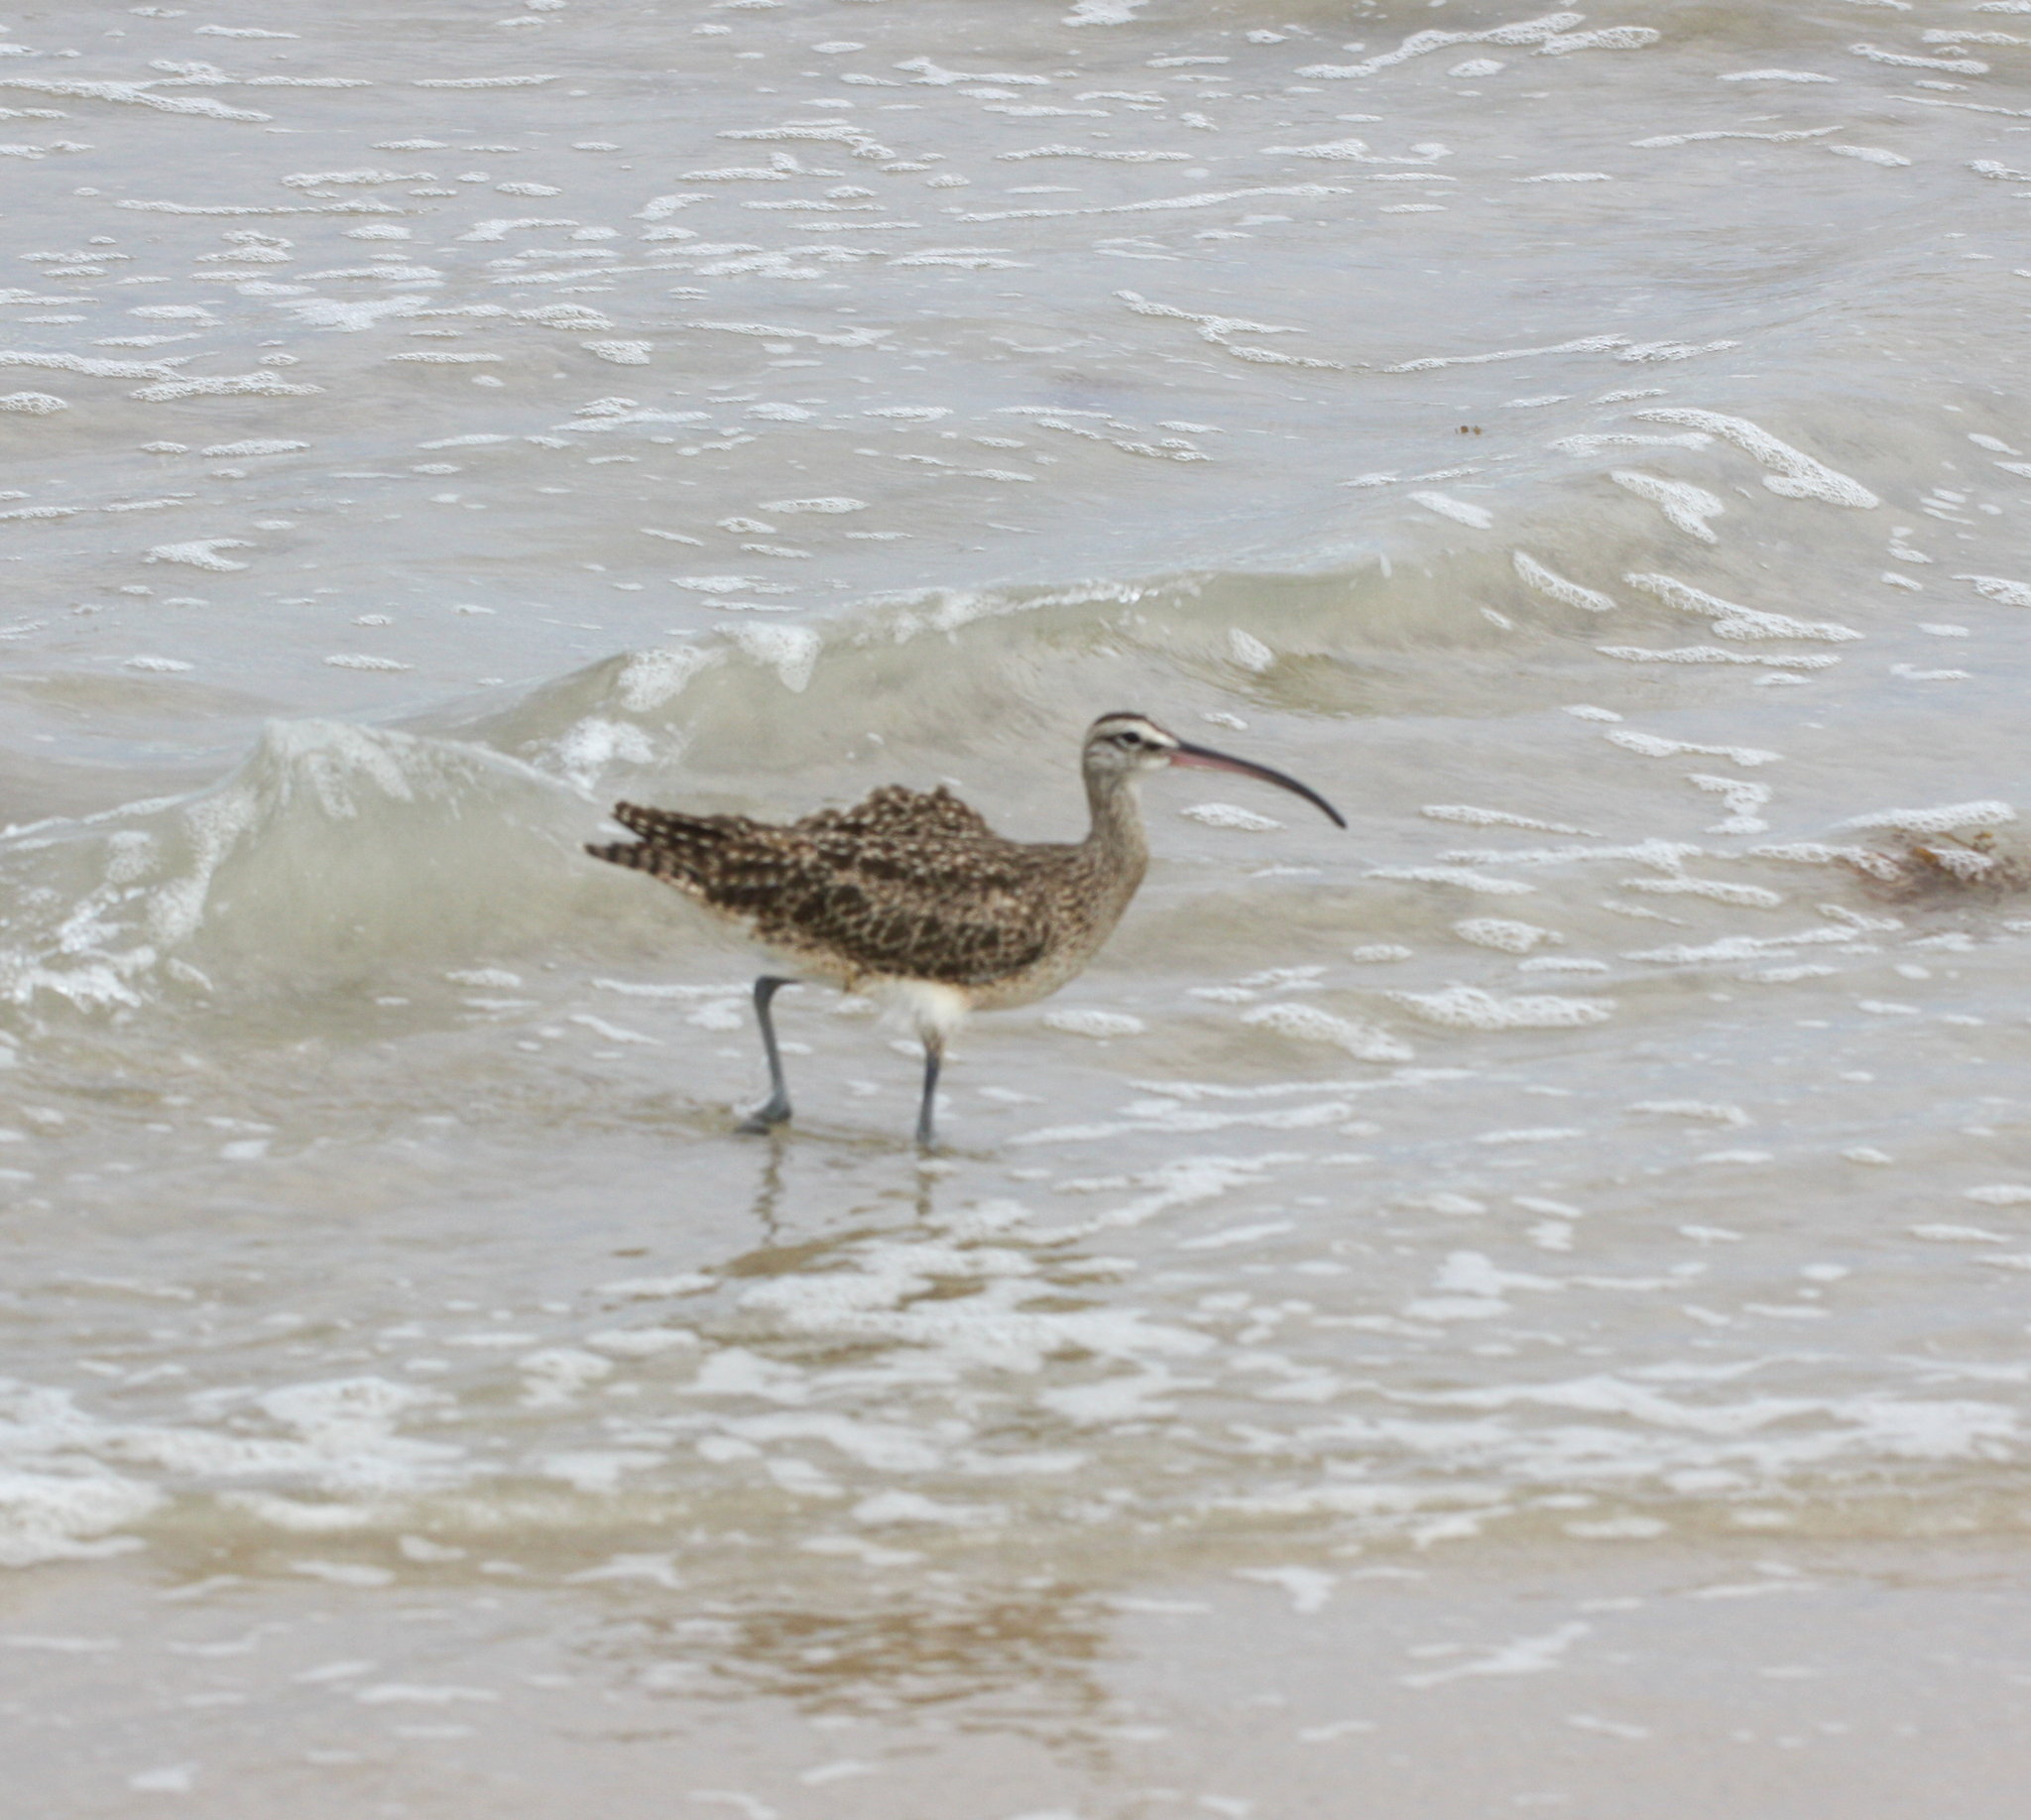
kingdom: Animalia
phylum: Chordata
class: Aves
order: Charadriiformes
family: Scolopacidae
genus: Numenius
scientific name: Numenius phaeopus
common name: Whimbrel
